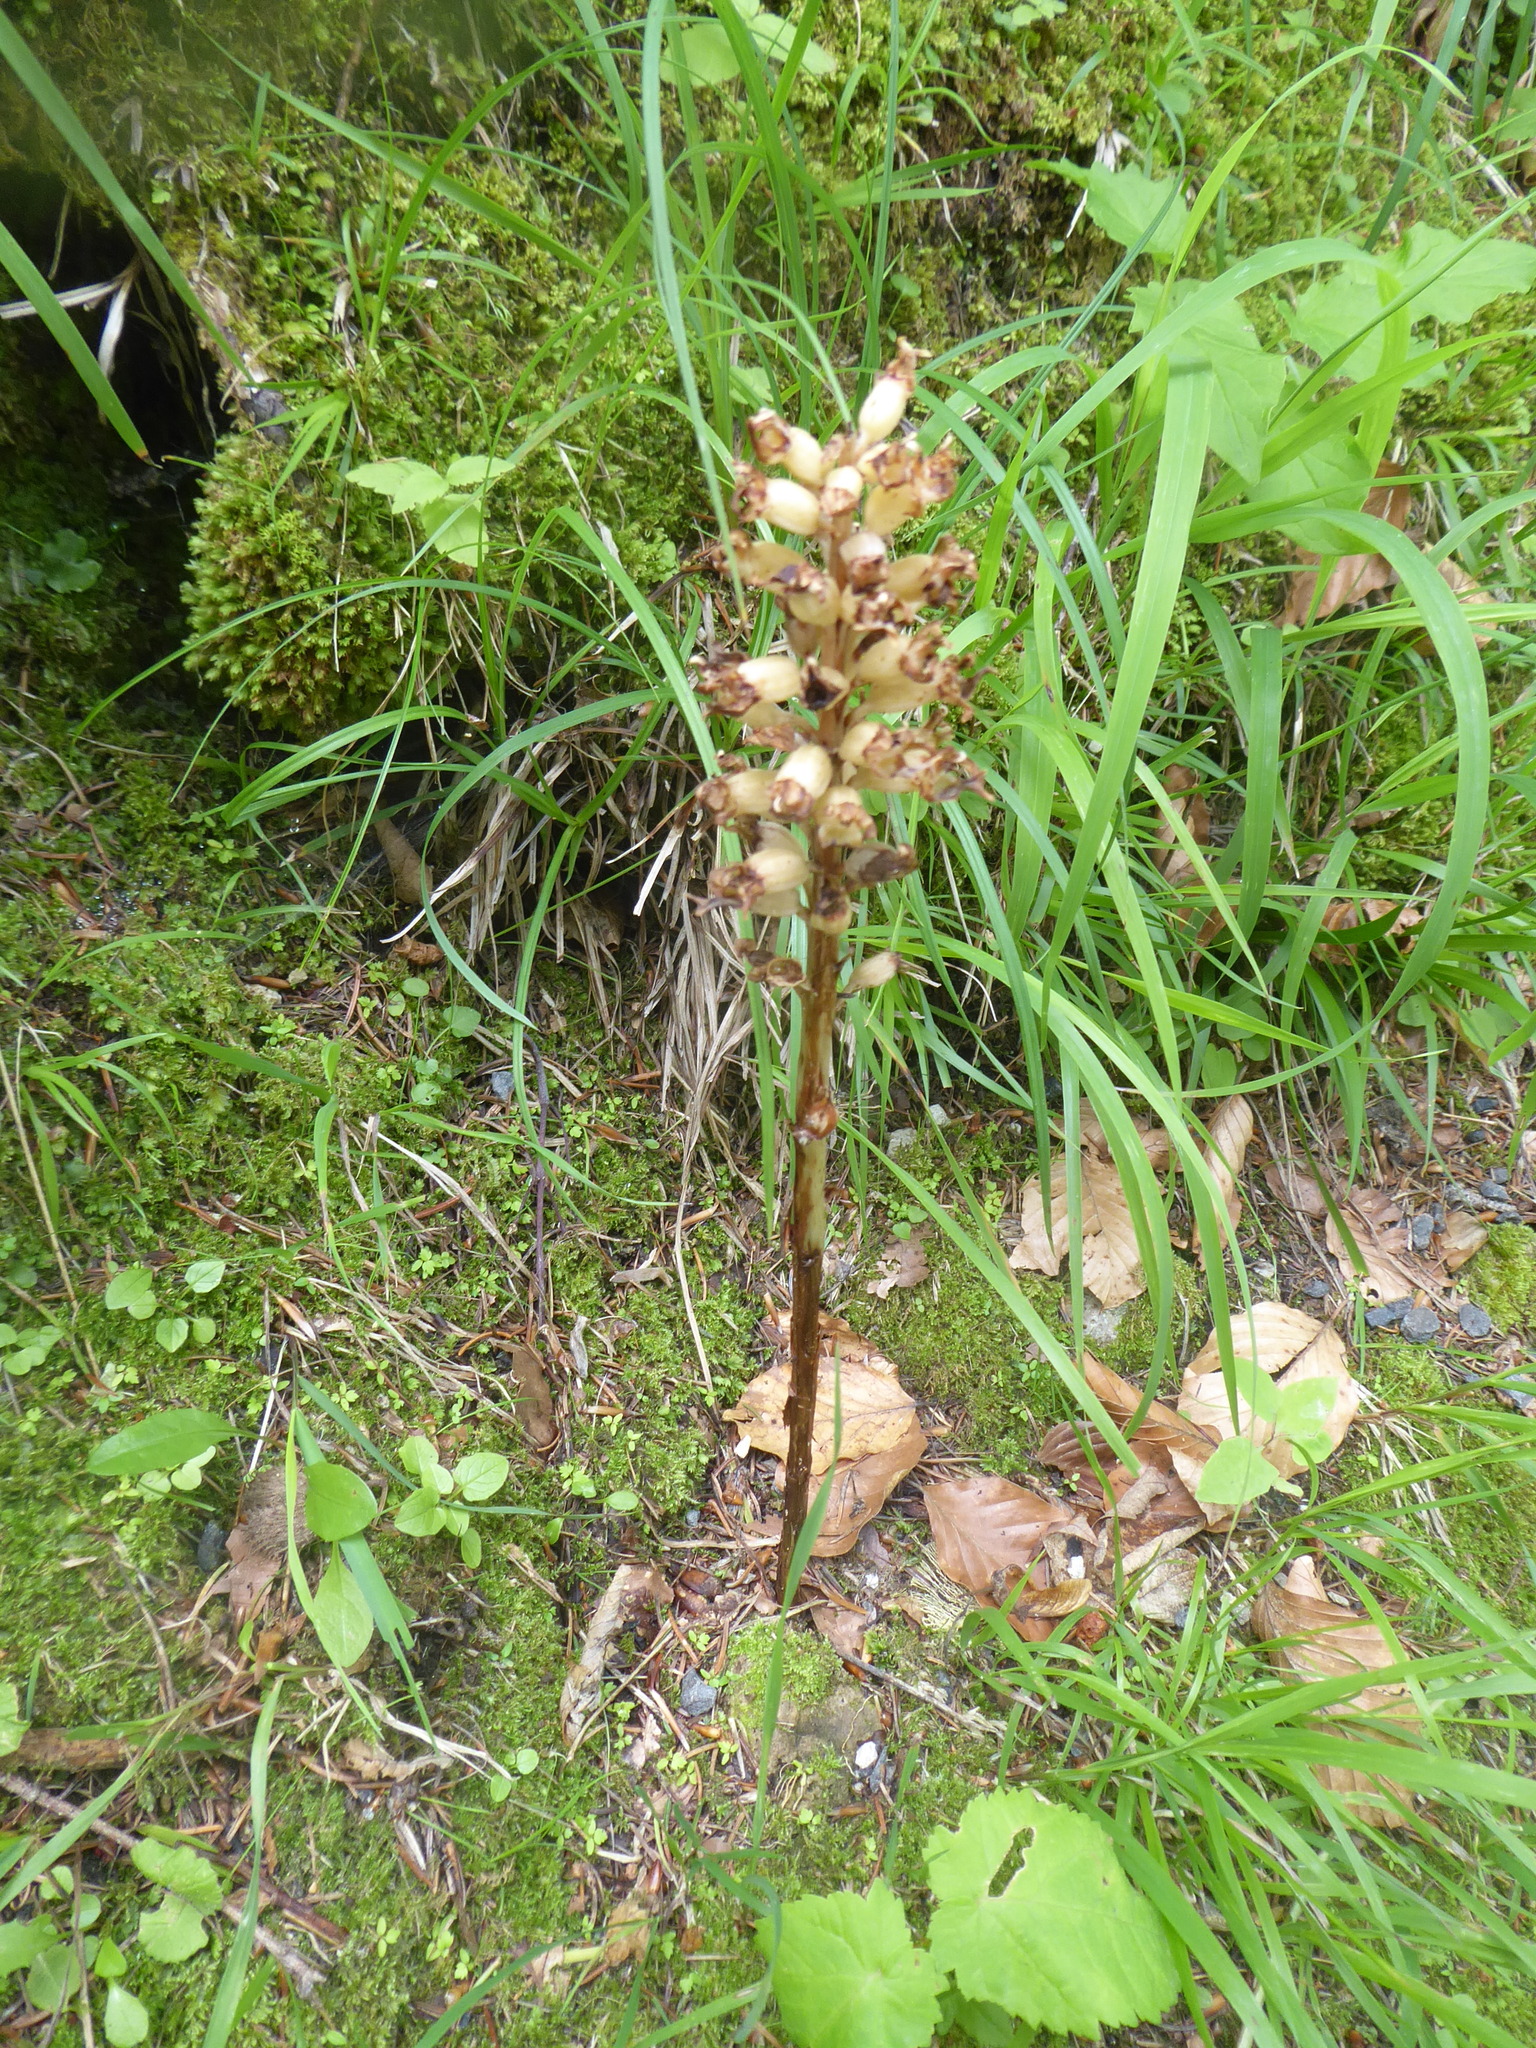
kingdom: Plantae
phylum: Tracheophyta
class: Liliopsida
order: Asparagales
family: Orchidaceae
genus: Neottia
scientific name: Neottia nidus-avis
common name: Bird's-nest orchid
